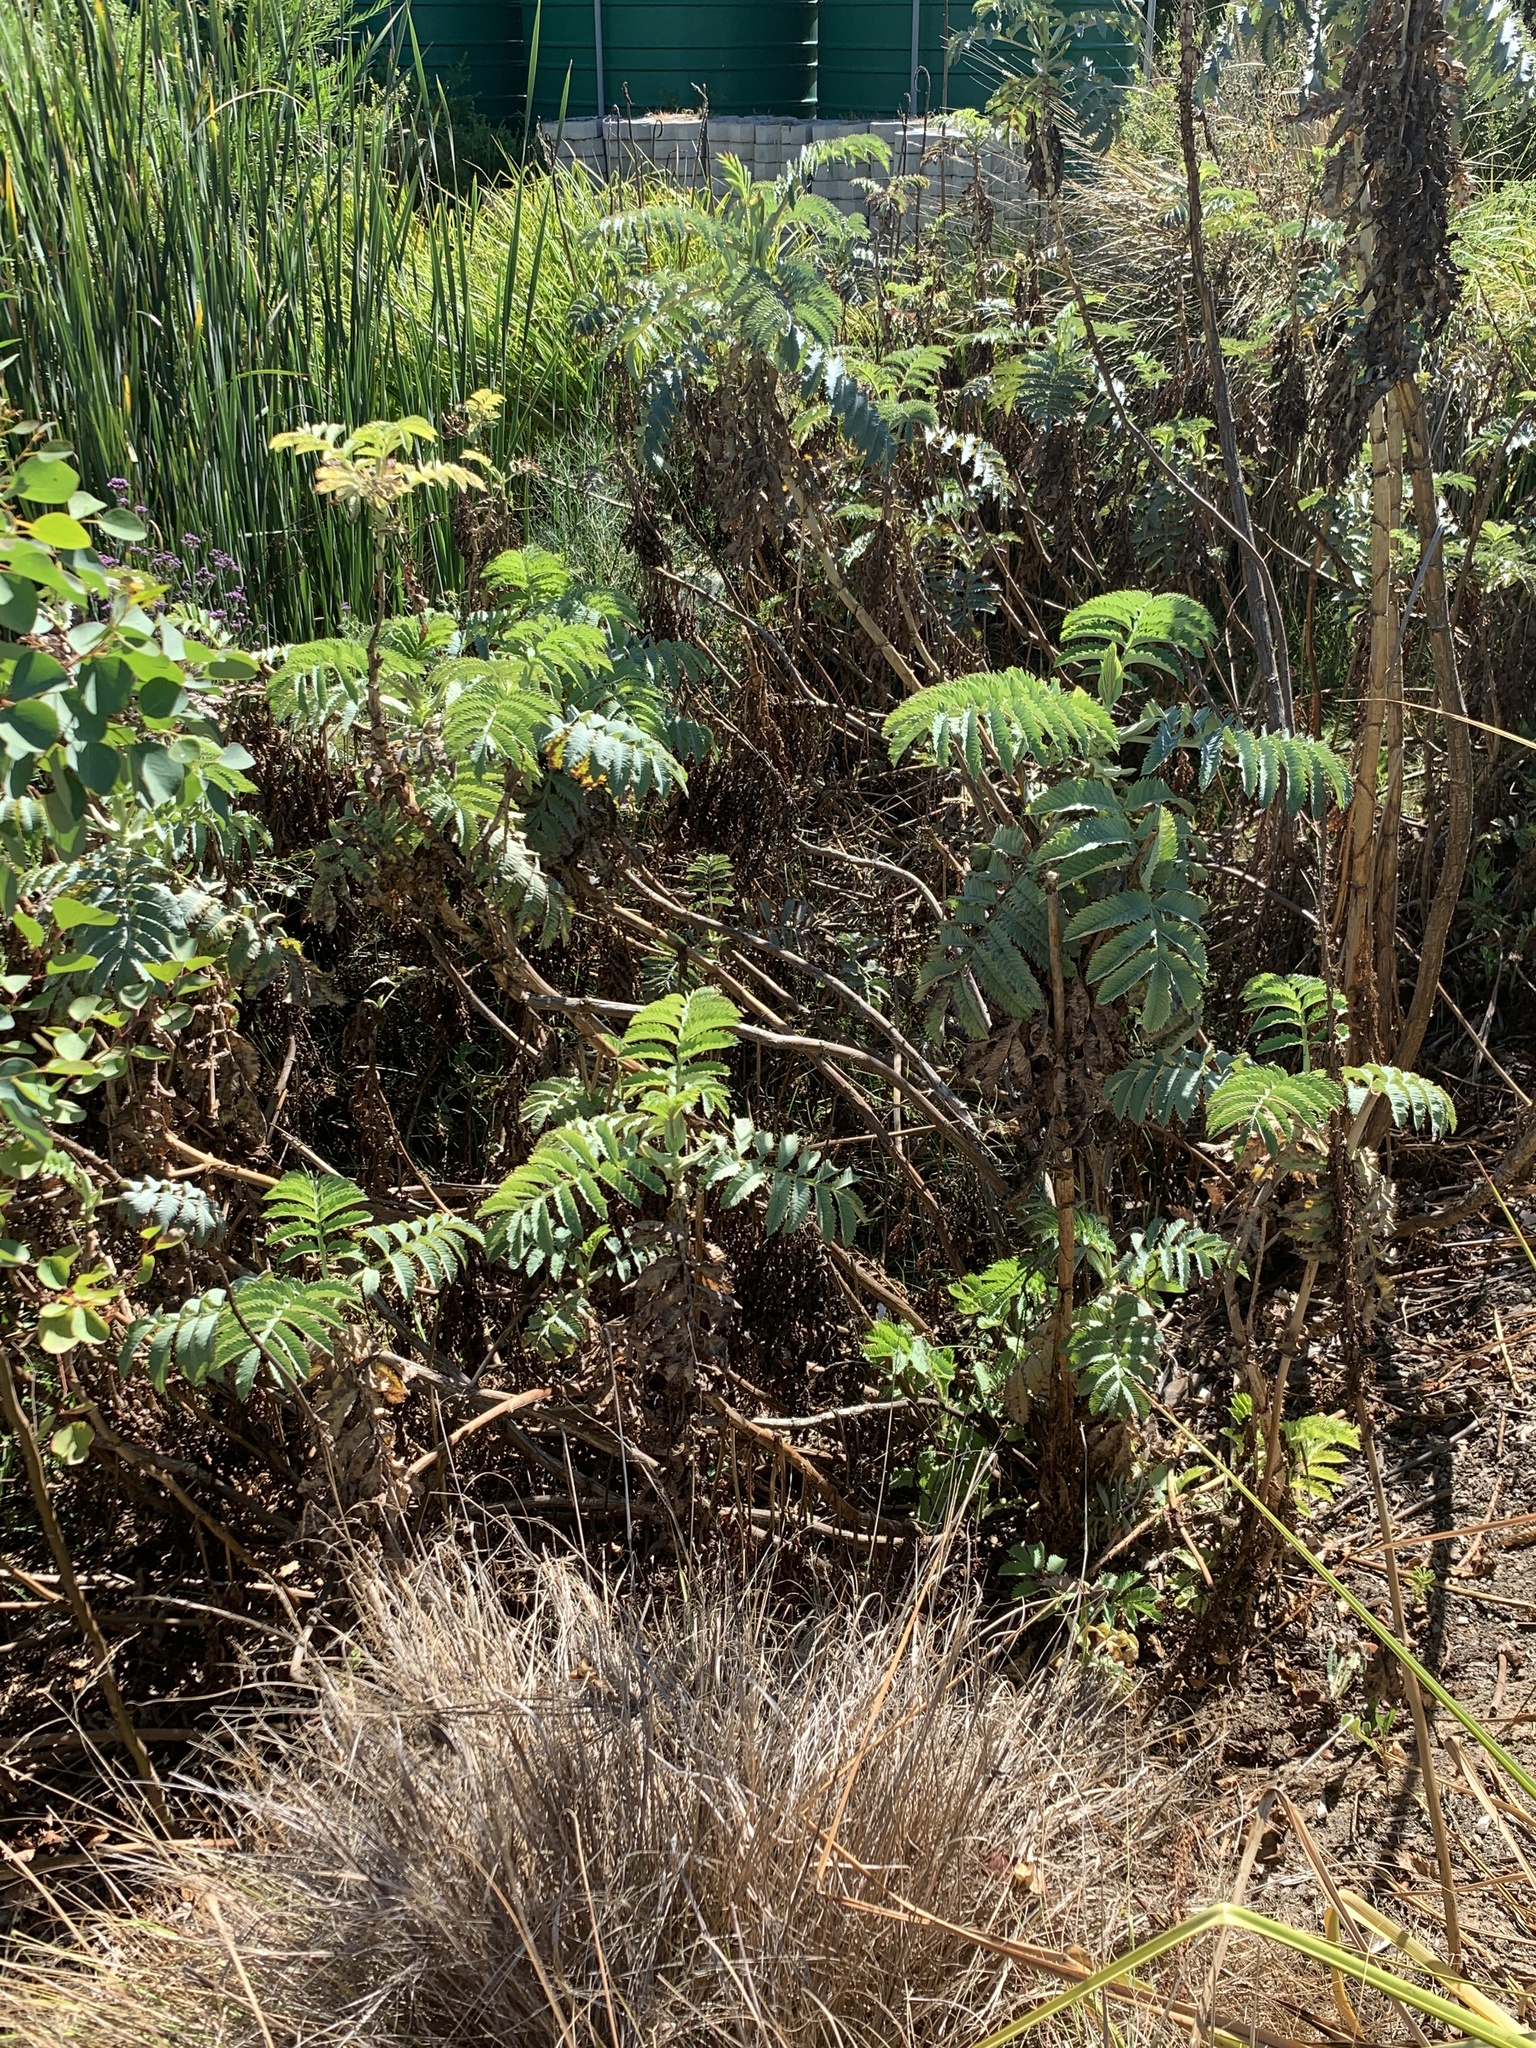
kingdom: Plantae
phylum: Tracheophyta
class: Magnoliopsida
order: Geraniales
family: Melianthaceae
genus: Melianthus
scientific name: Melianthus major
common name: Honey-flower
